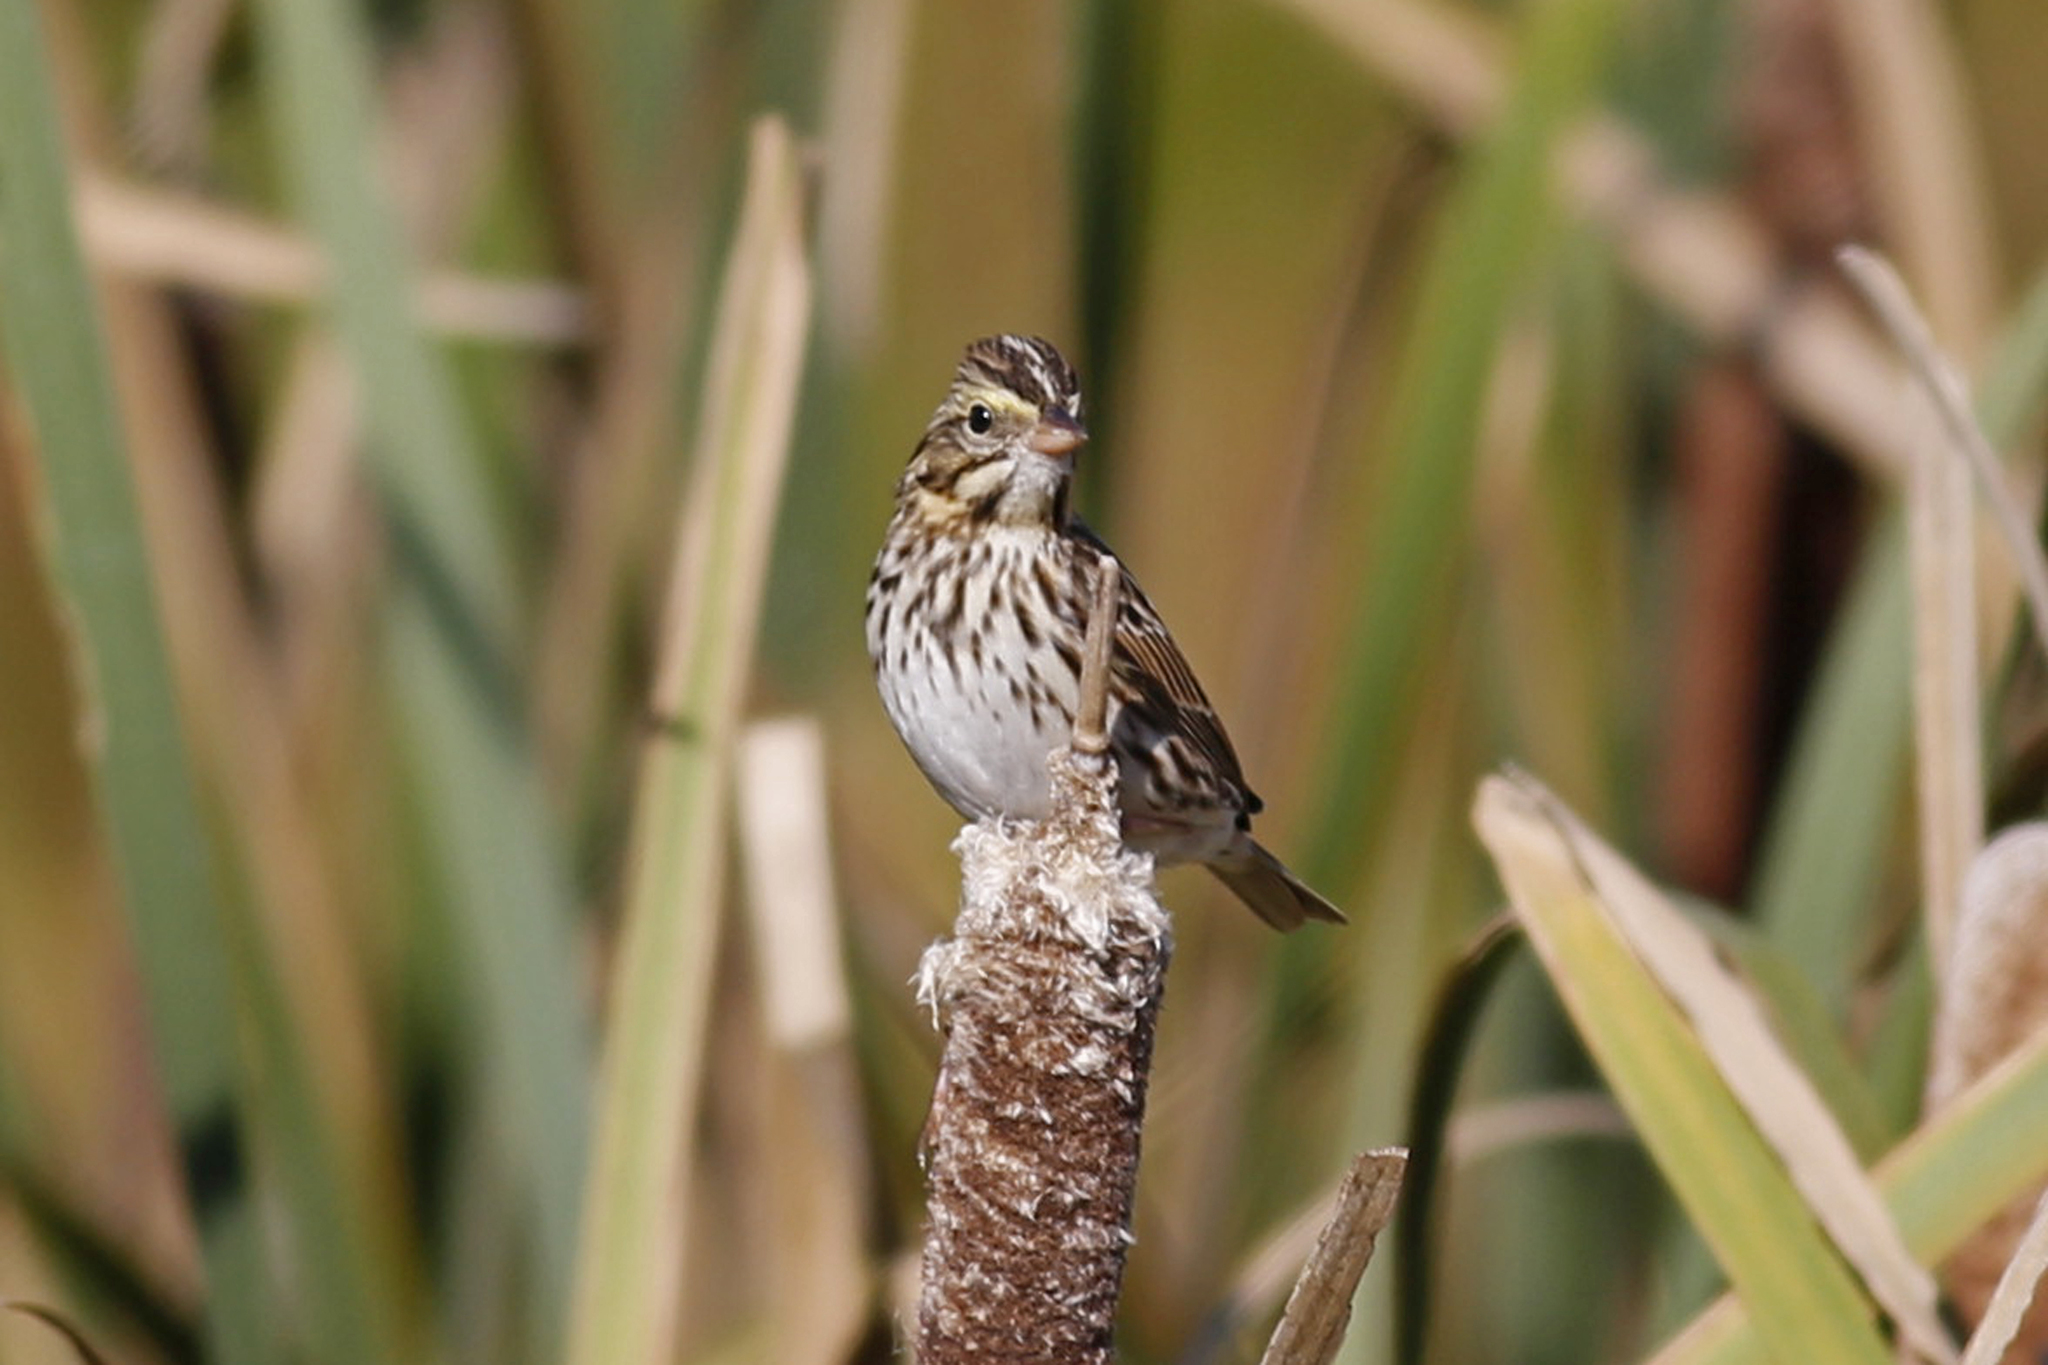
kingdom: Animalia
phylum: Chordata
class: Aves
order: Passeriformes
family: Passerellidae
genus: Passerculus
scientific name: Passerculus sandwichensis
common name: Savannah sparrow
